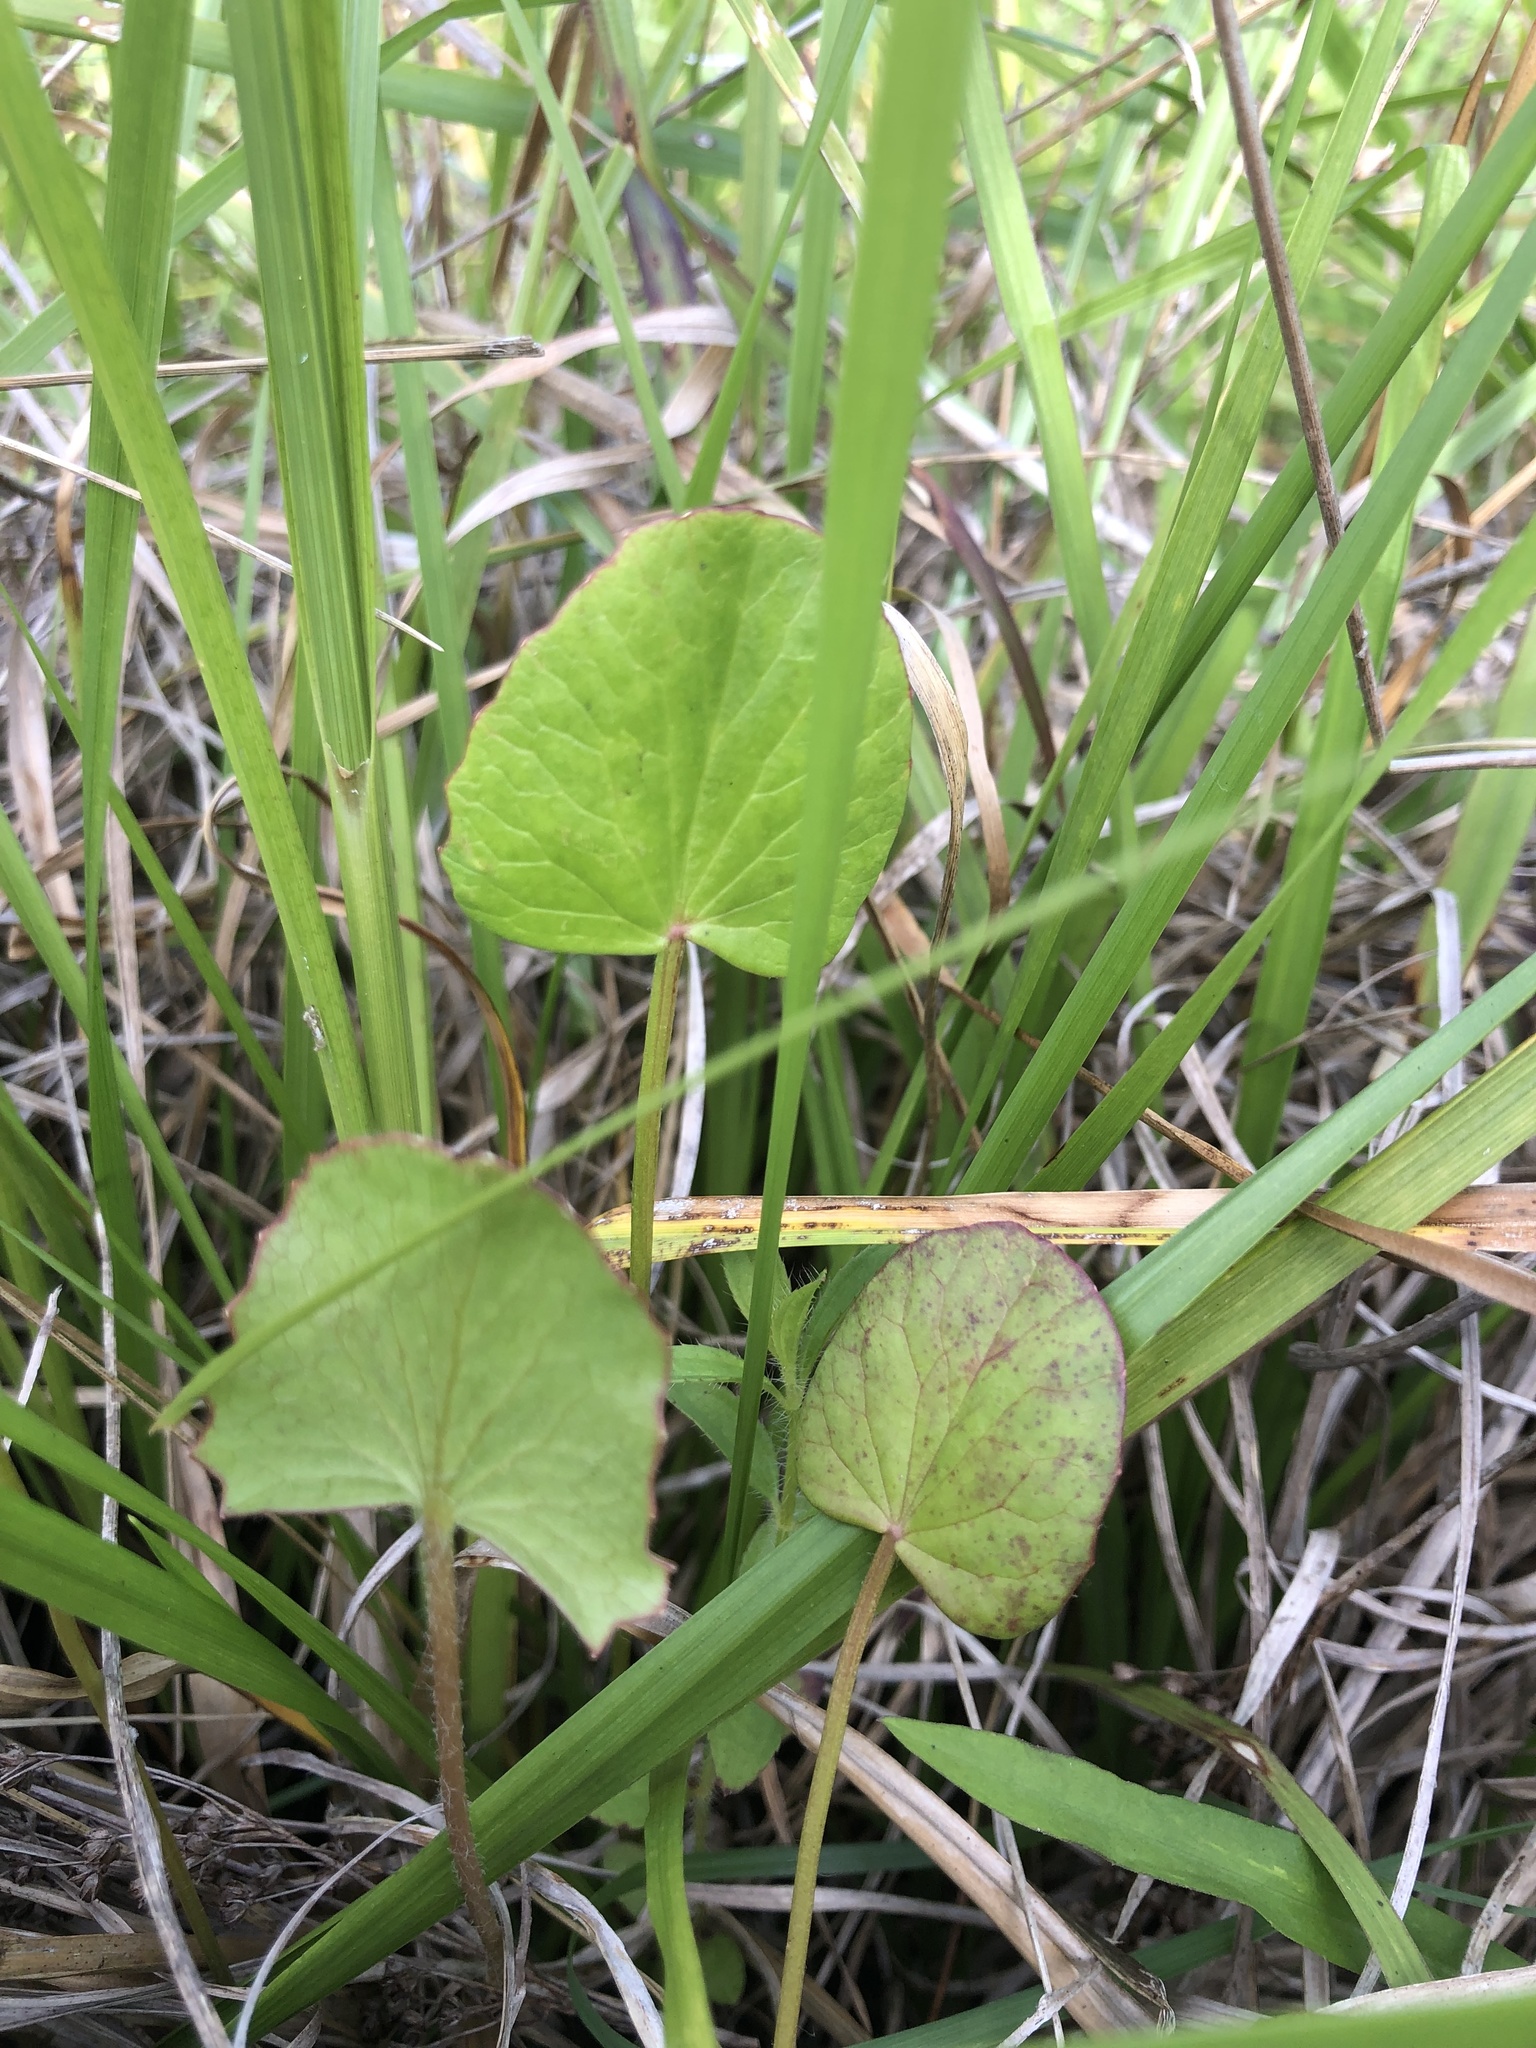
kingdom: Plantae
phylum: Tracheophyta
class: Magnoliopsida
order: Apiales
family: Apiaceae
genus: Centella
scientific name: Centella erecta
